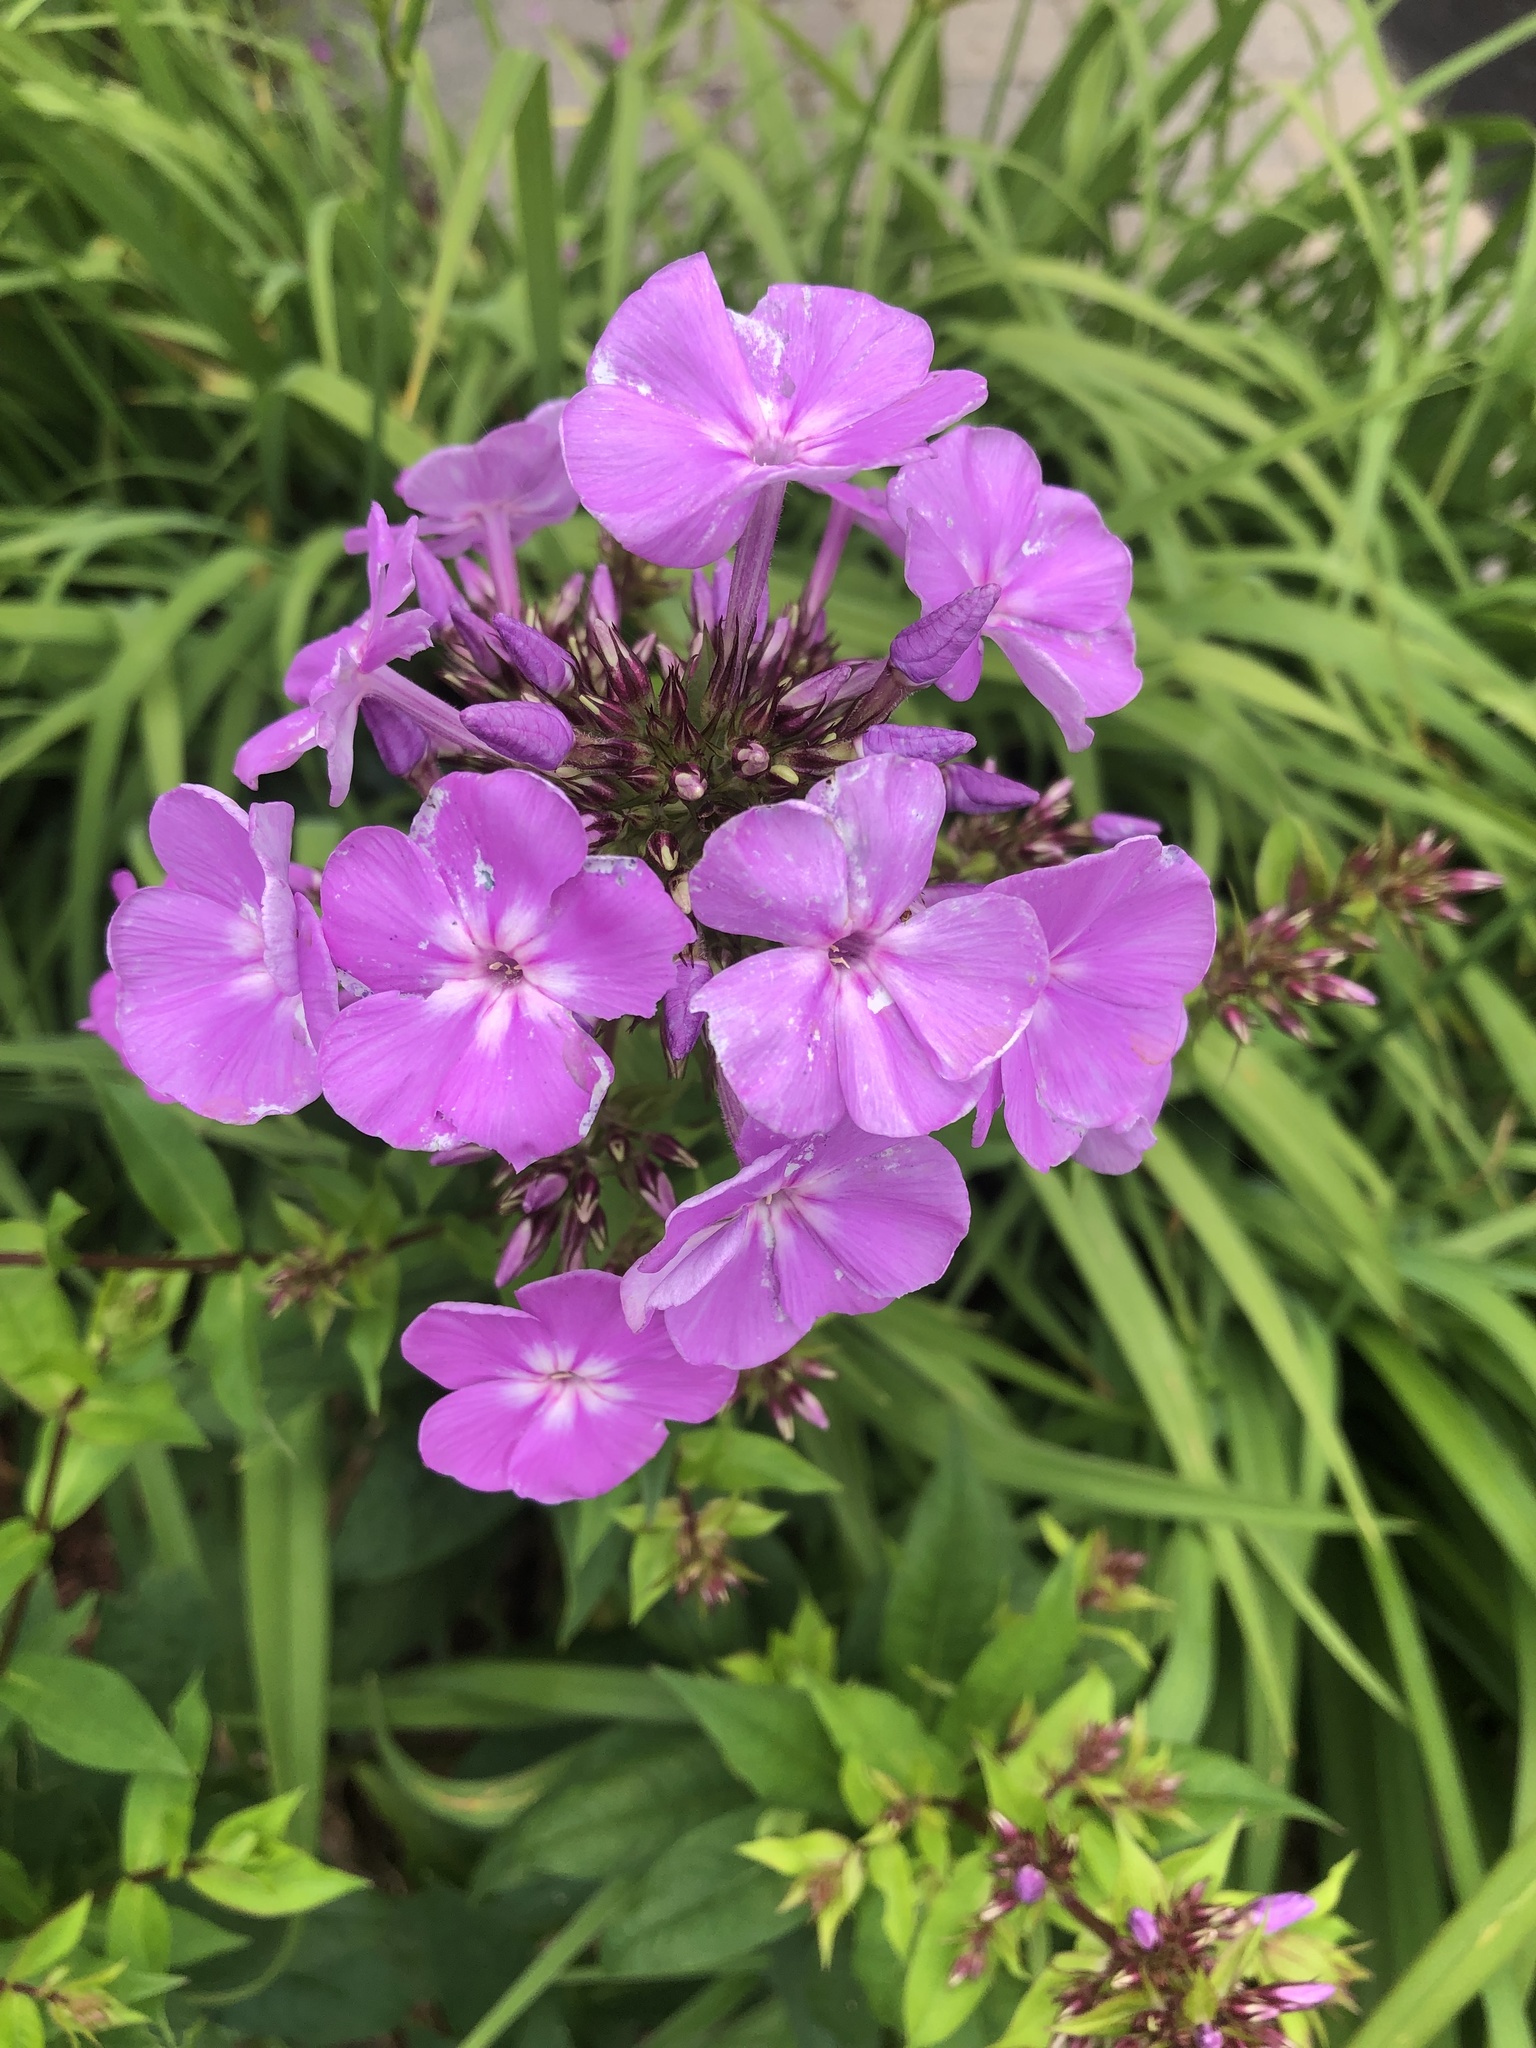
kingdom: Plantae
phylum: Tracheophyta
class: Magnoliopsida
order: Ericales
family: Polemoniaceae
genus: Phlox
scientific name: Phlox paniculata
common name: Fall phlox
